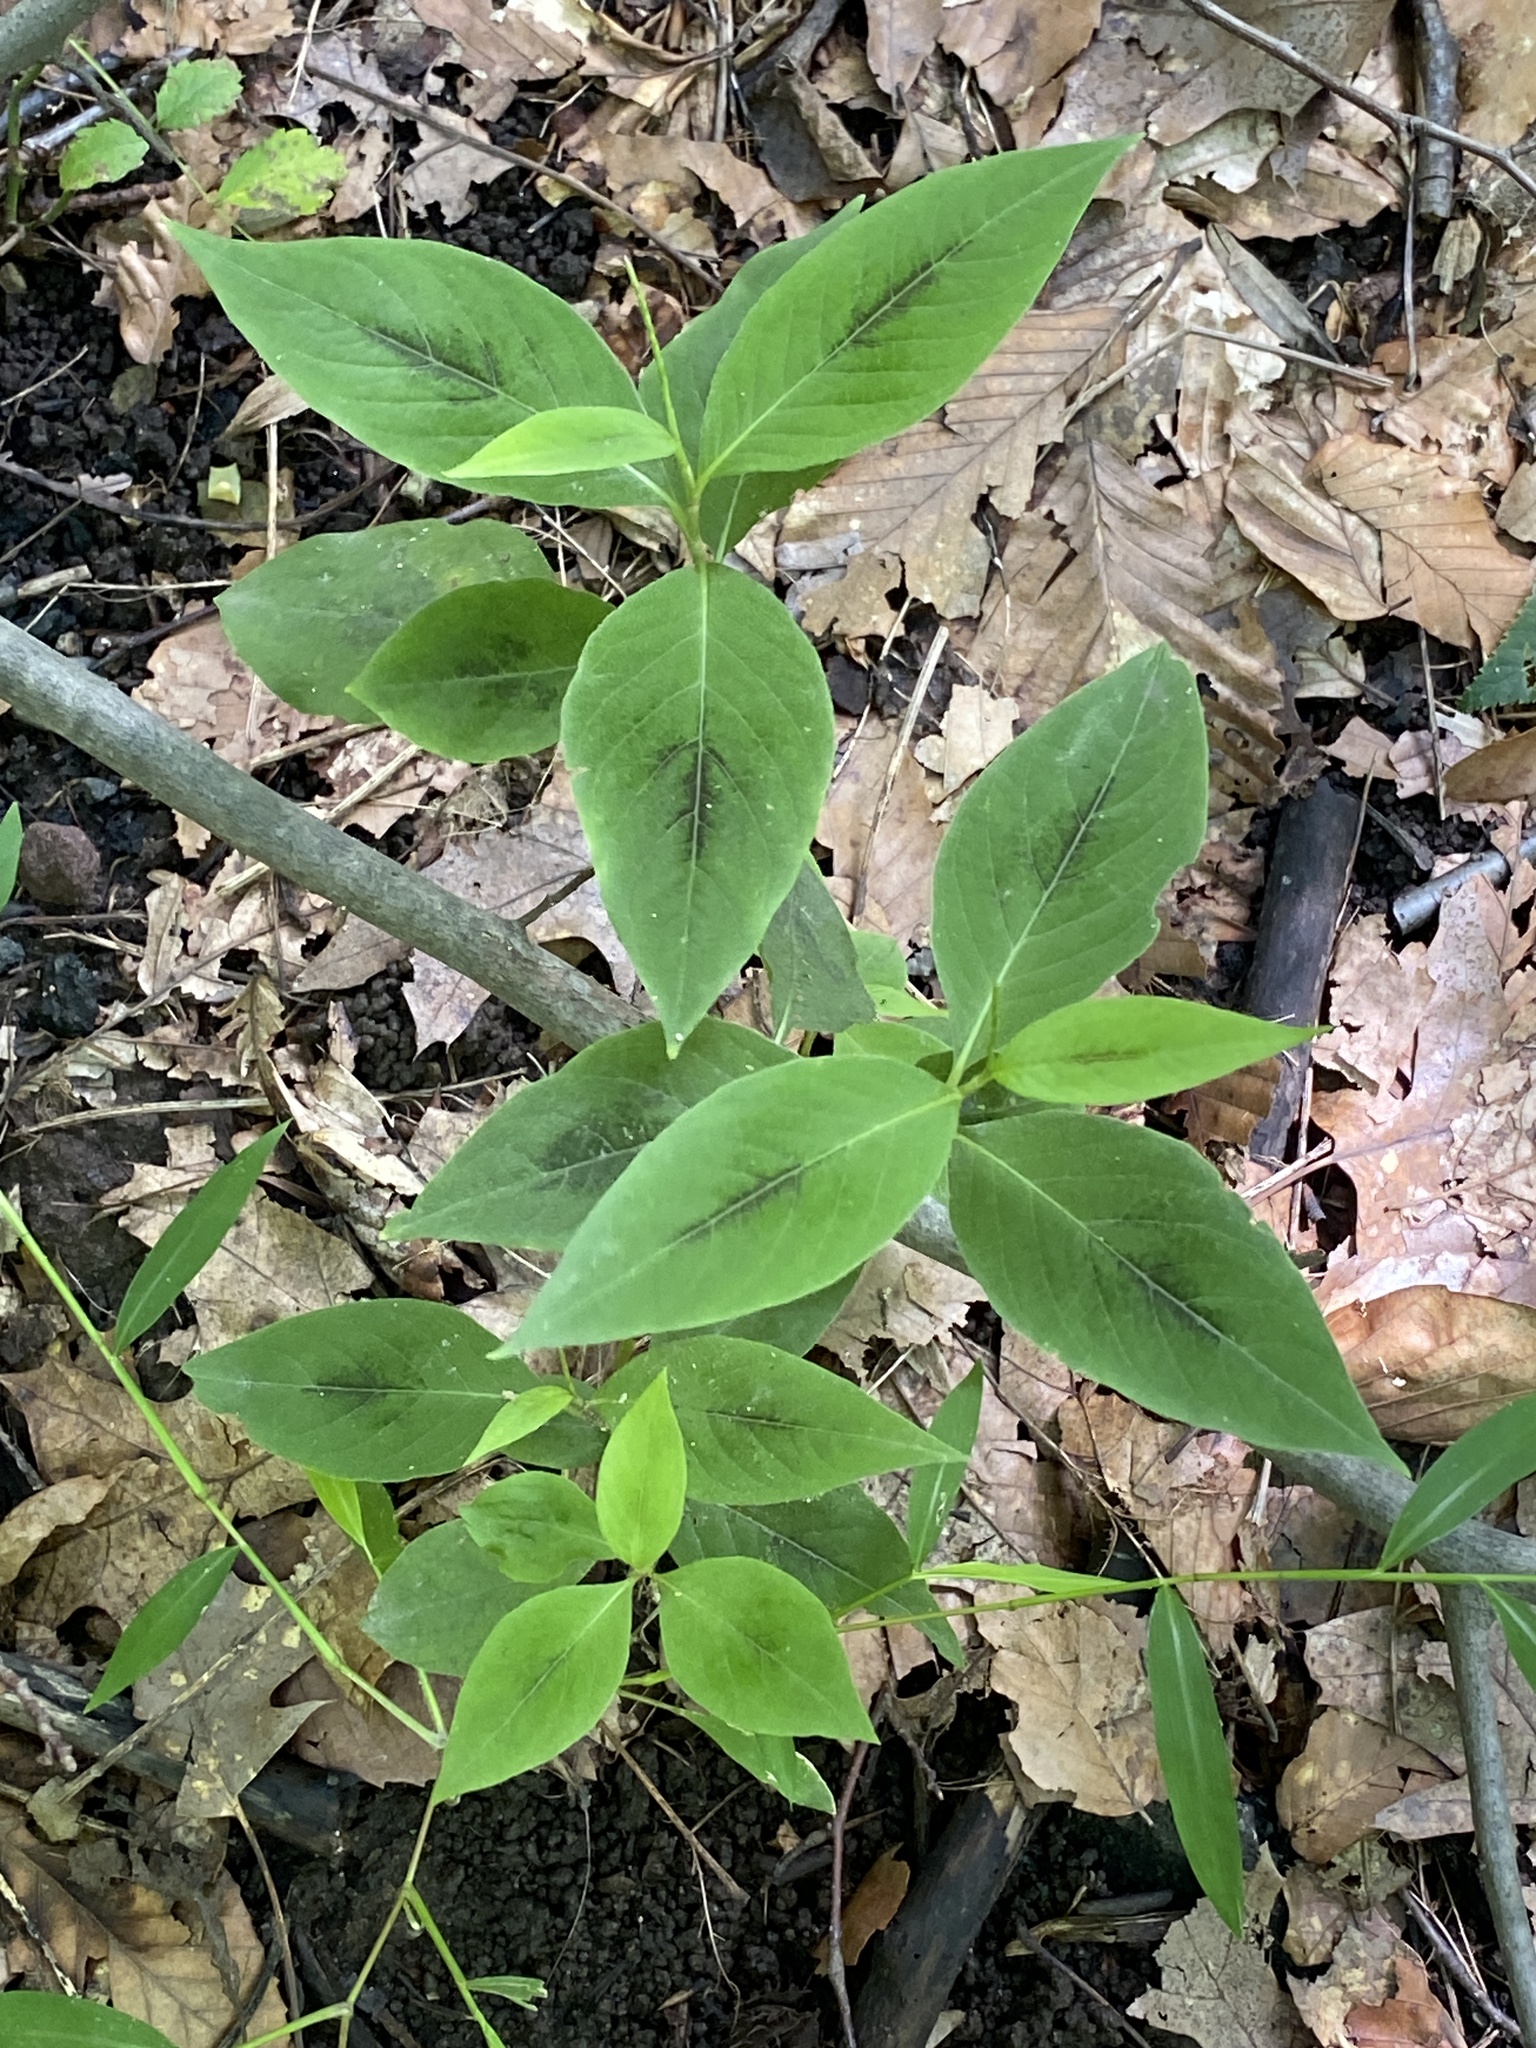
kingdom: Plantae
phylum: Tracheophyta
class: Magnoliopsida
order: Caryophyllales
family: Polygonaceae
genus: Persicaria
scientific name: Persicaria virginiana
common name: Jumpseed
